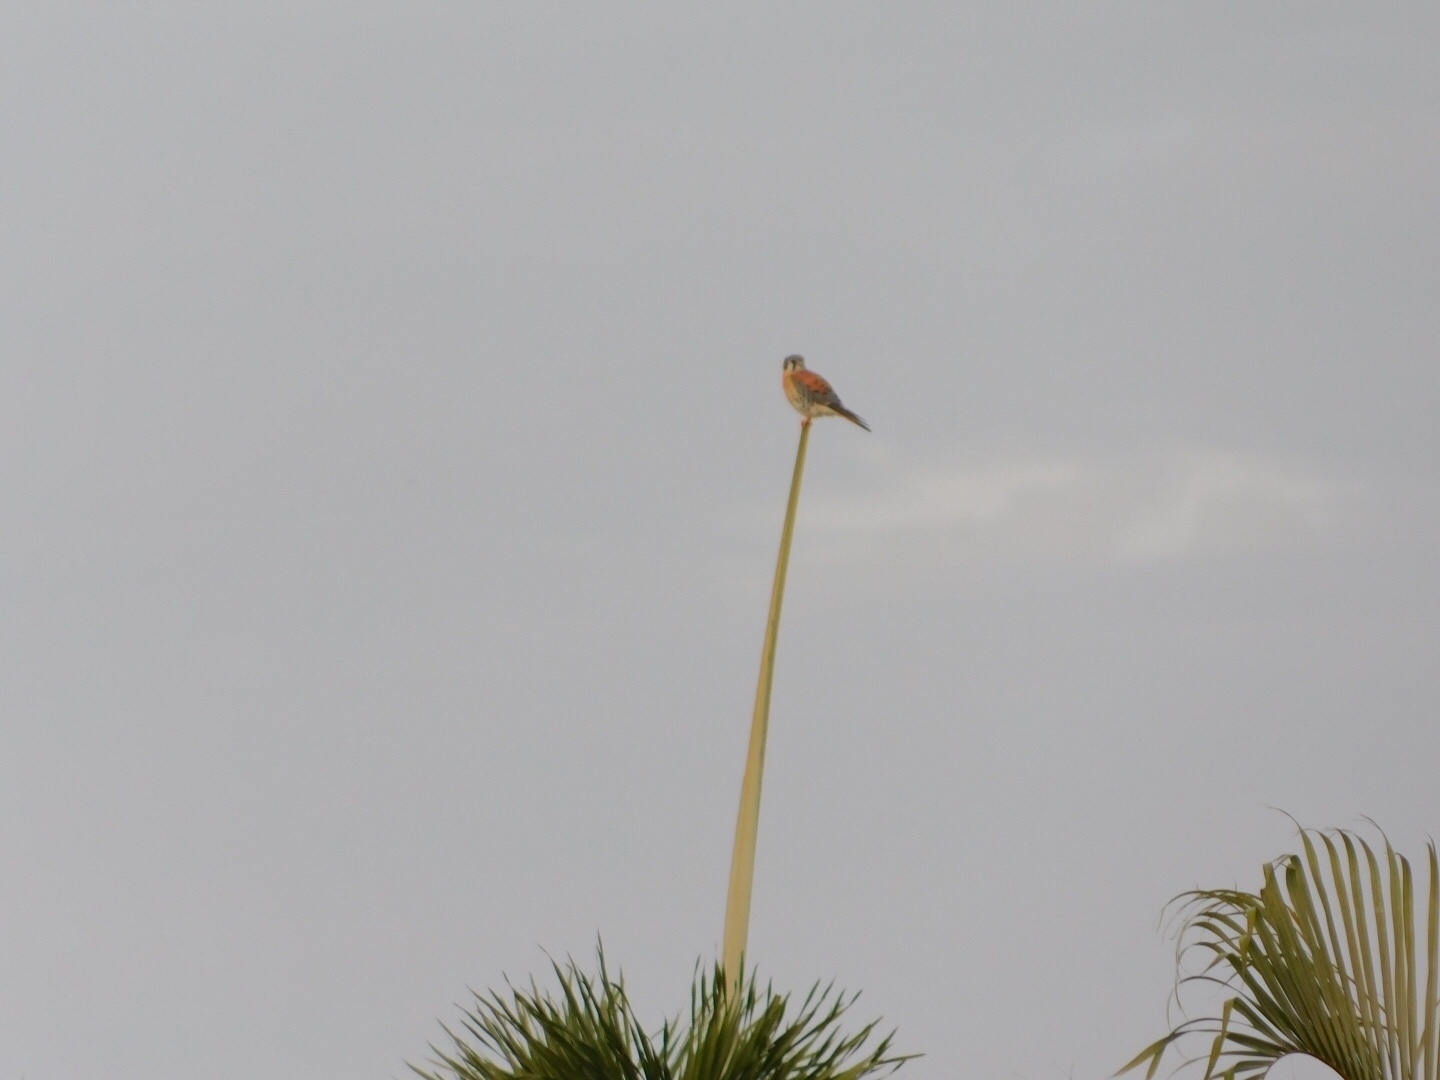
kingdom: Animalia
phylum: Chordata
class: Aves
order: Falconiformes
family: Falconidae
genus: Falco
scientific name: Falco sparverius
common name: American kestrel
